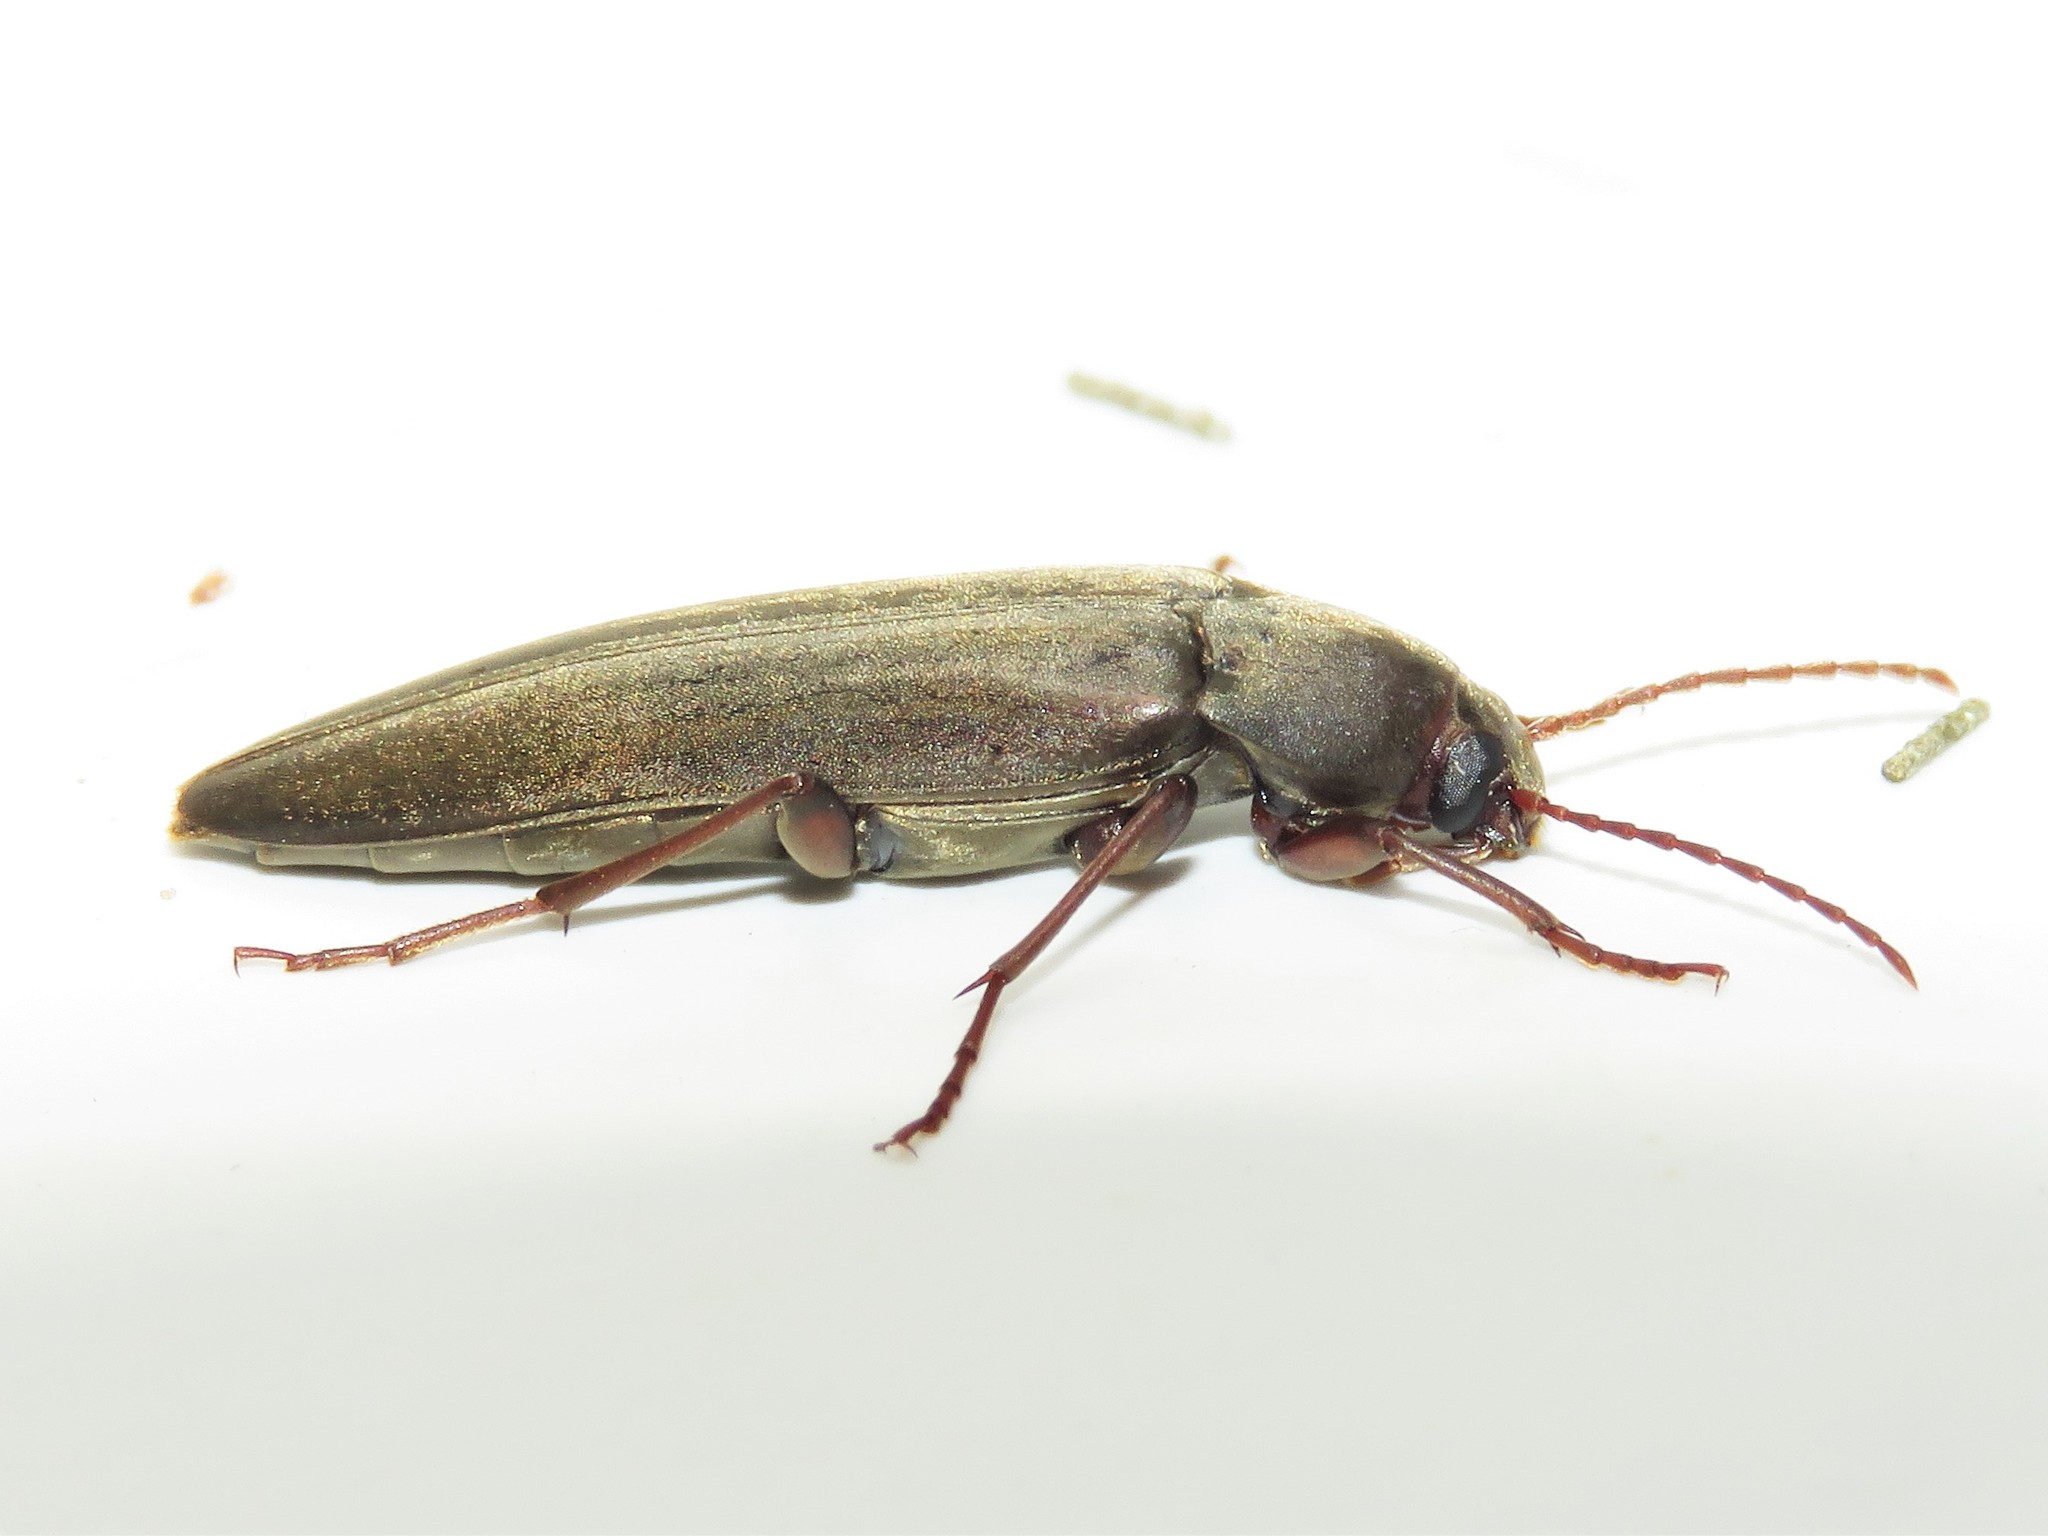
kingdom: Animalia
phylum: Arthropoda
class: Insecta
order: Coleoptera
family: Melandryidae
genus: Enchodes
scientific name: Enchodes sericea
